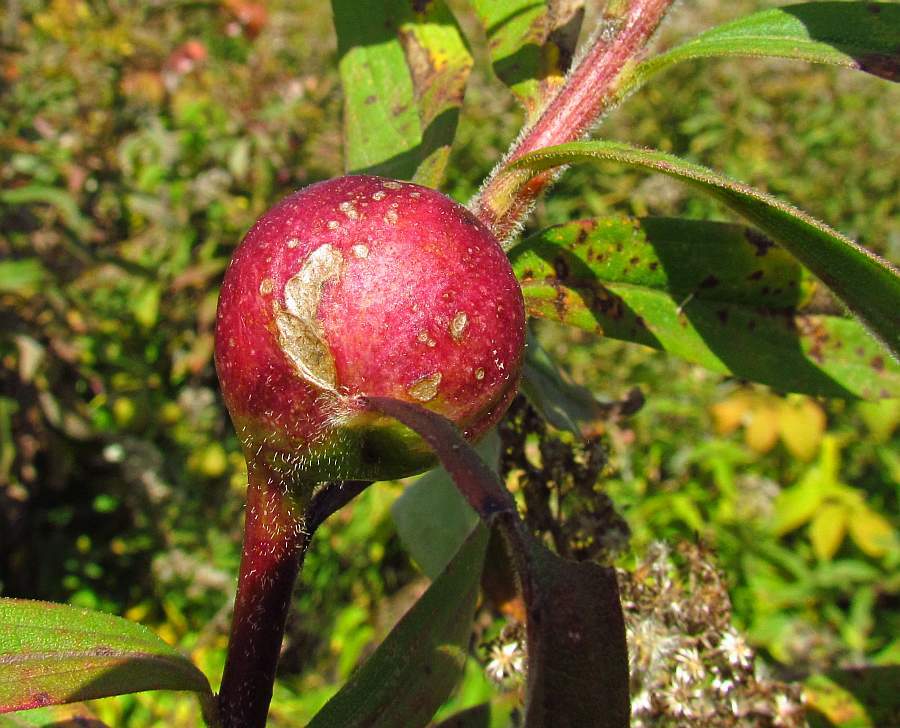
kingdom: Animalia
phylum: Arthropoda
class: Insecta
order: Diptera
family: Tephritidae
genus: Eurosta
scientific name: Eurosta solidaginis
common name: Goldenrod gall fly
